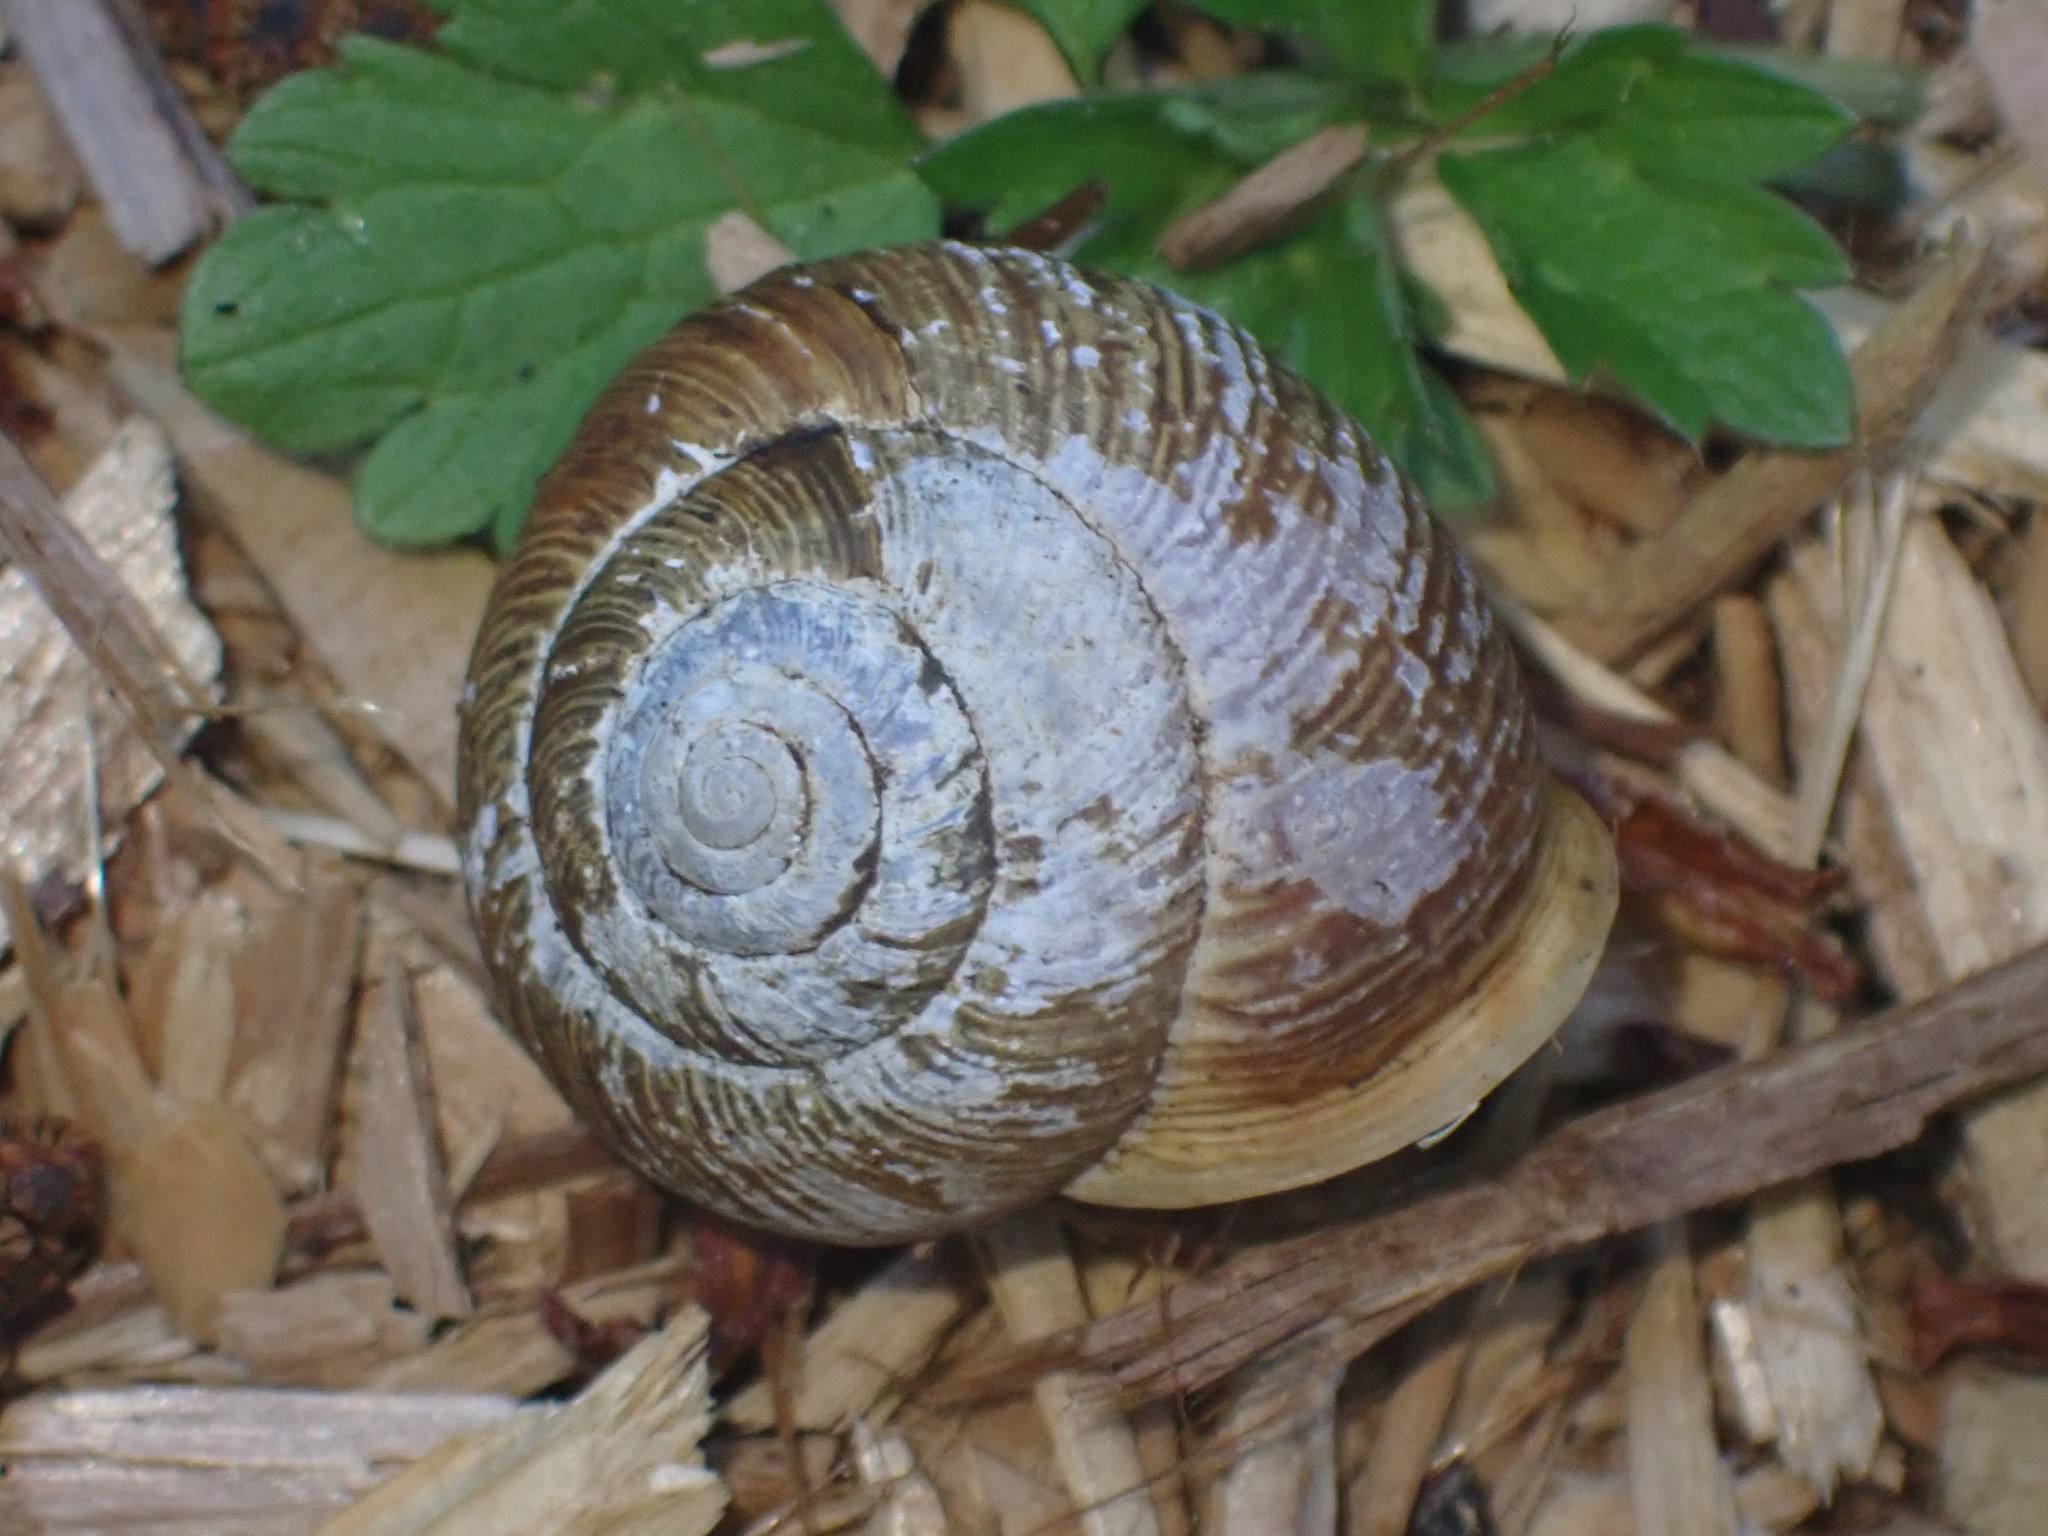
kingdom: Animalia
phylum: Mollusca
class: Gastropoda
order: Stylommatophora
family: Polygyridae
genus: Allogona
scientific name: Allogona townsendiana
